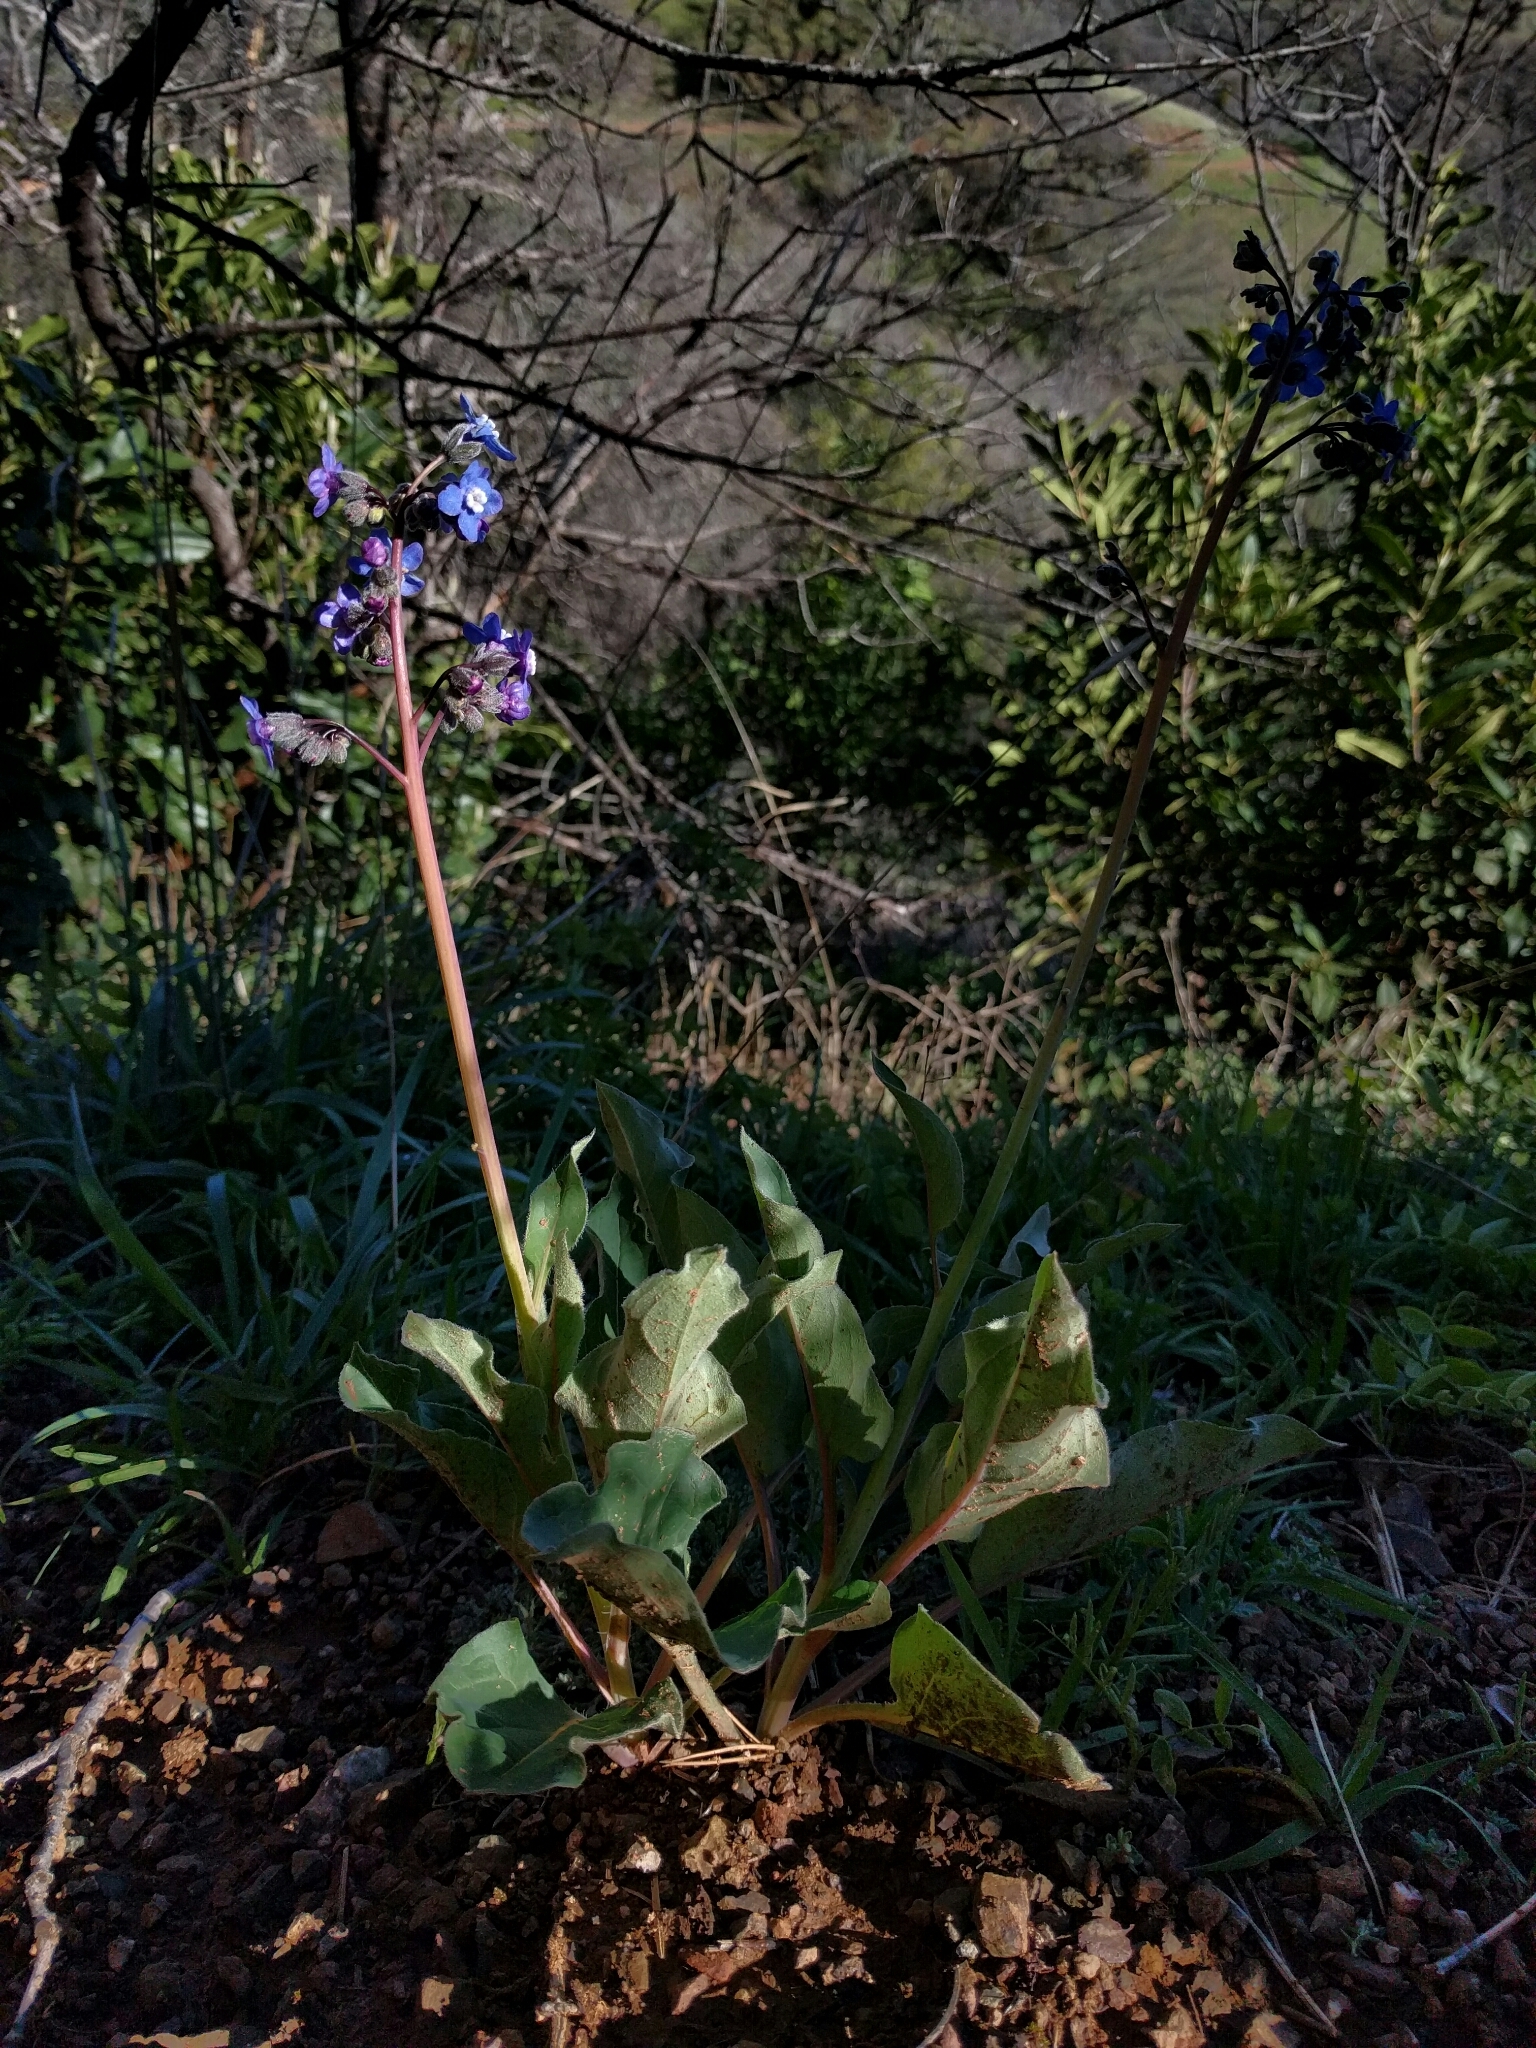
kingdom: Plantae
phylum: Tracheophyta
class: Magnoliopsida
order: Boraginales
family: Boraginaceae
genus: Adelinia
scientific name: Adelinia grande
